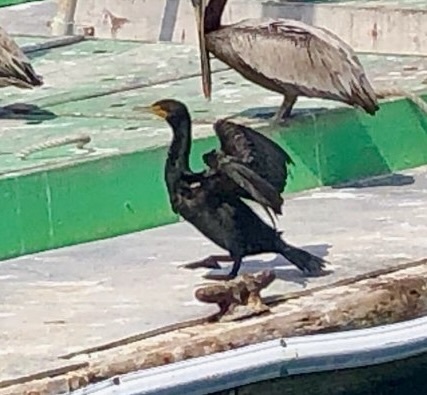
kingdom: Animalia
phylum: Chordata
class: Aves
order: Suliformes
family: Phalacrocoracidae
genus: Phalacrocorax
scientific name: Phalacrocorax auritus
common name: Double-crested cormorant
